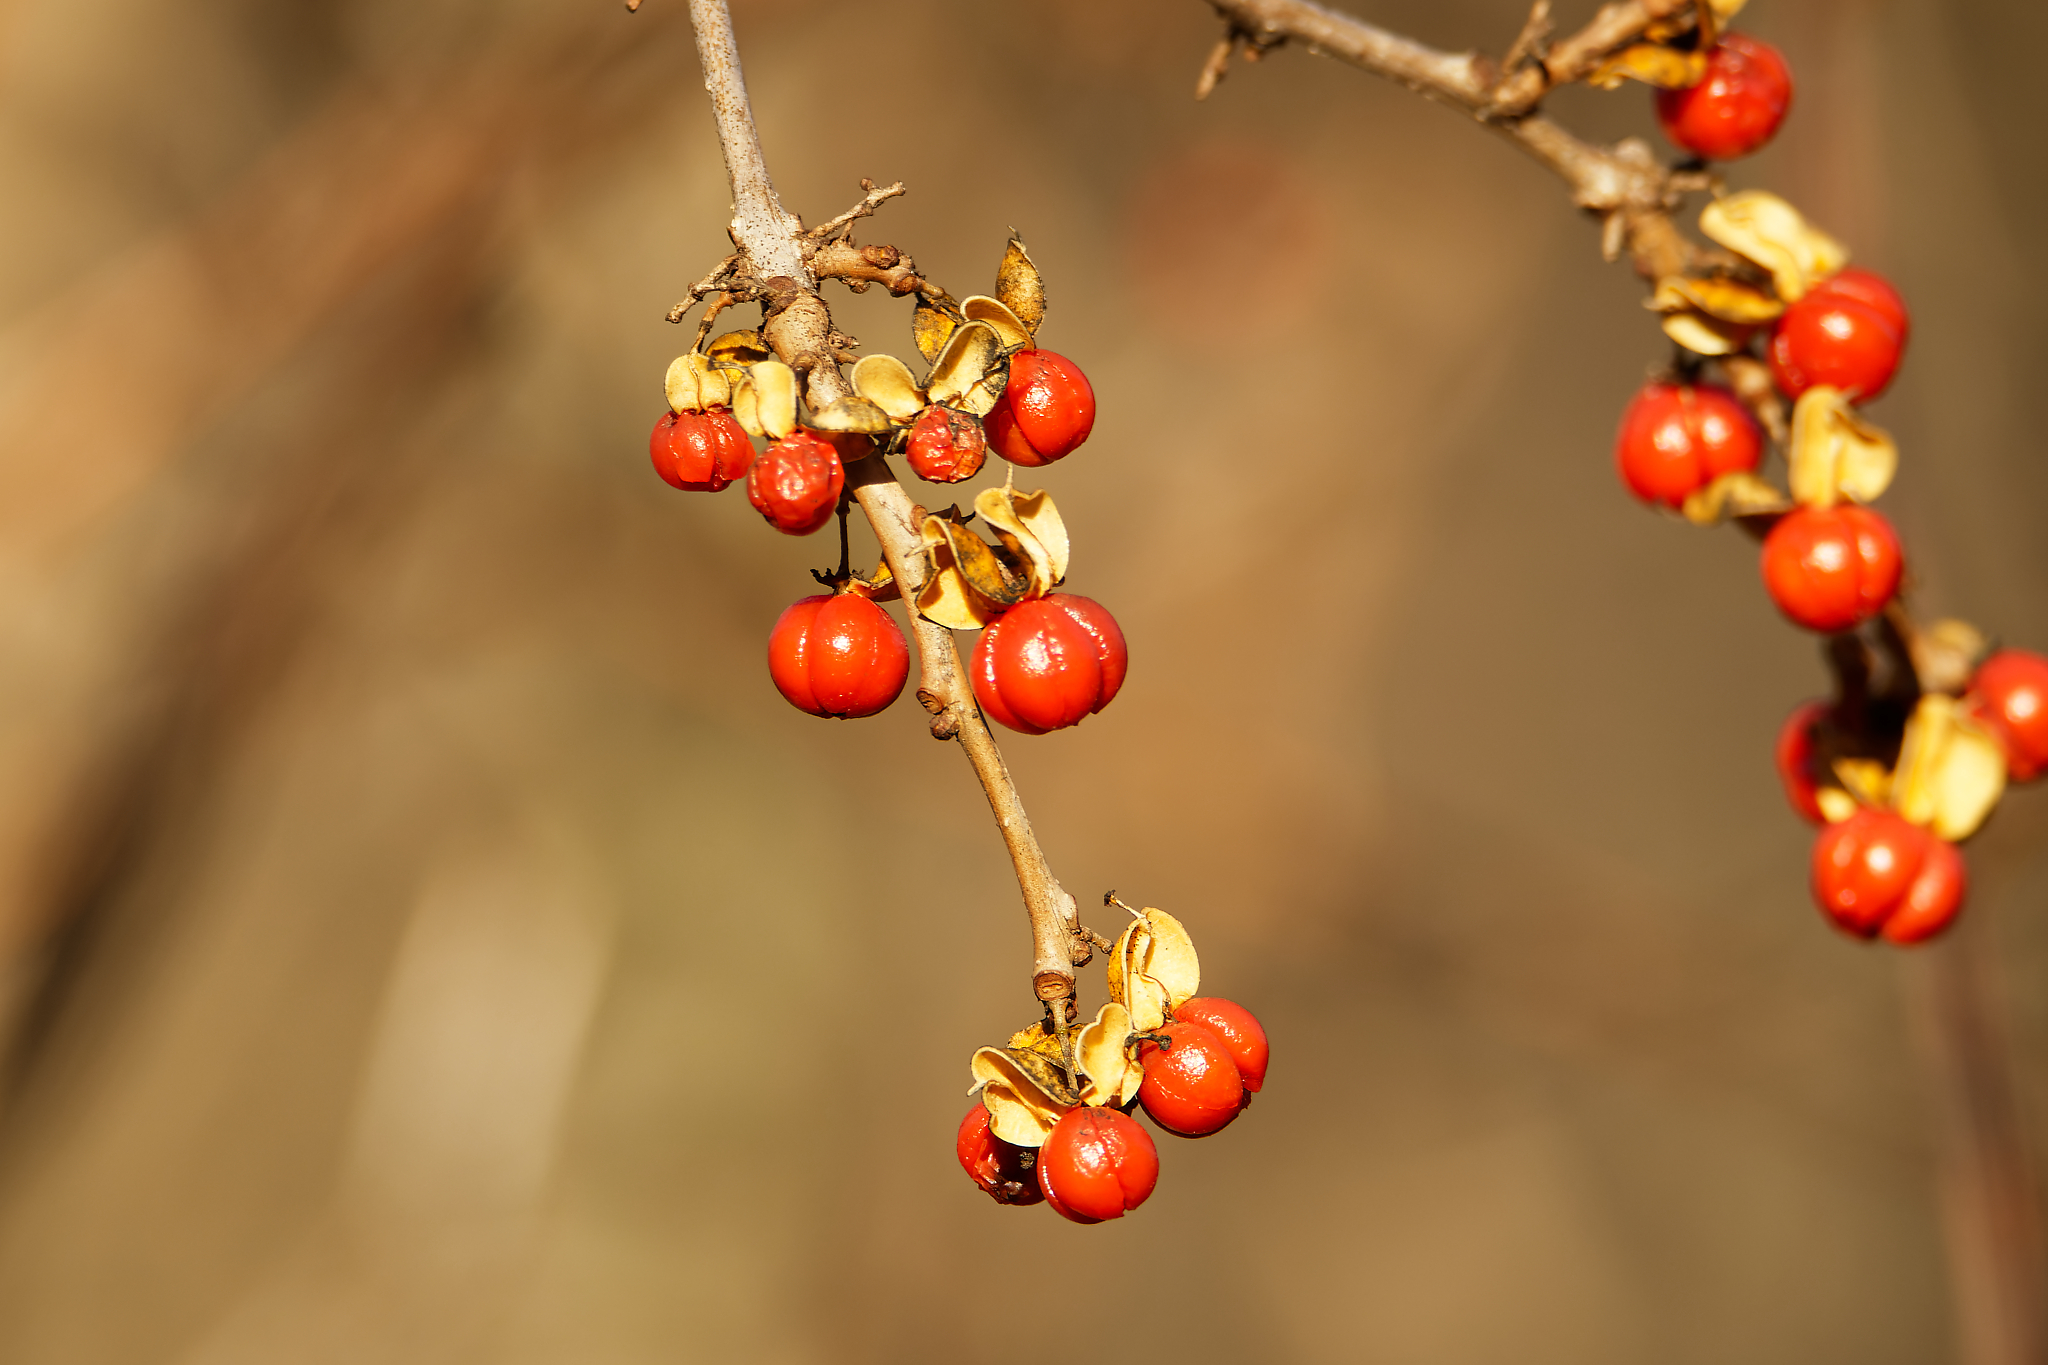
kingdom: Plantae
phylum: Tracheophyta
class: Magnoliopsida
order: Celastrales
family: Celastraceae
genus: Celastrus
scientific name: Celastrus orbiculatus
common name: Oriental bittersweet
